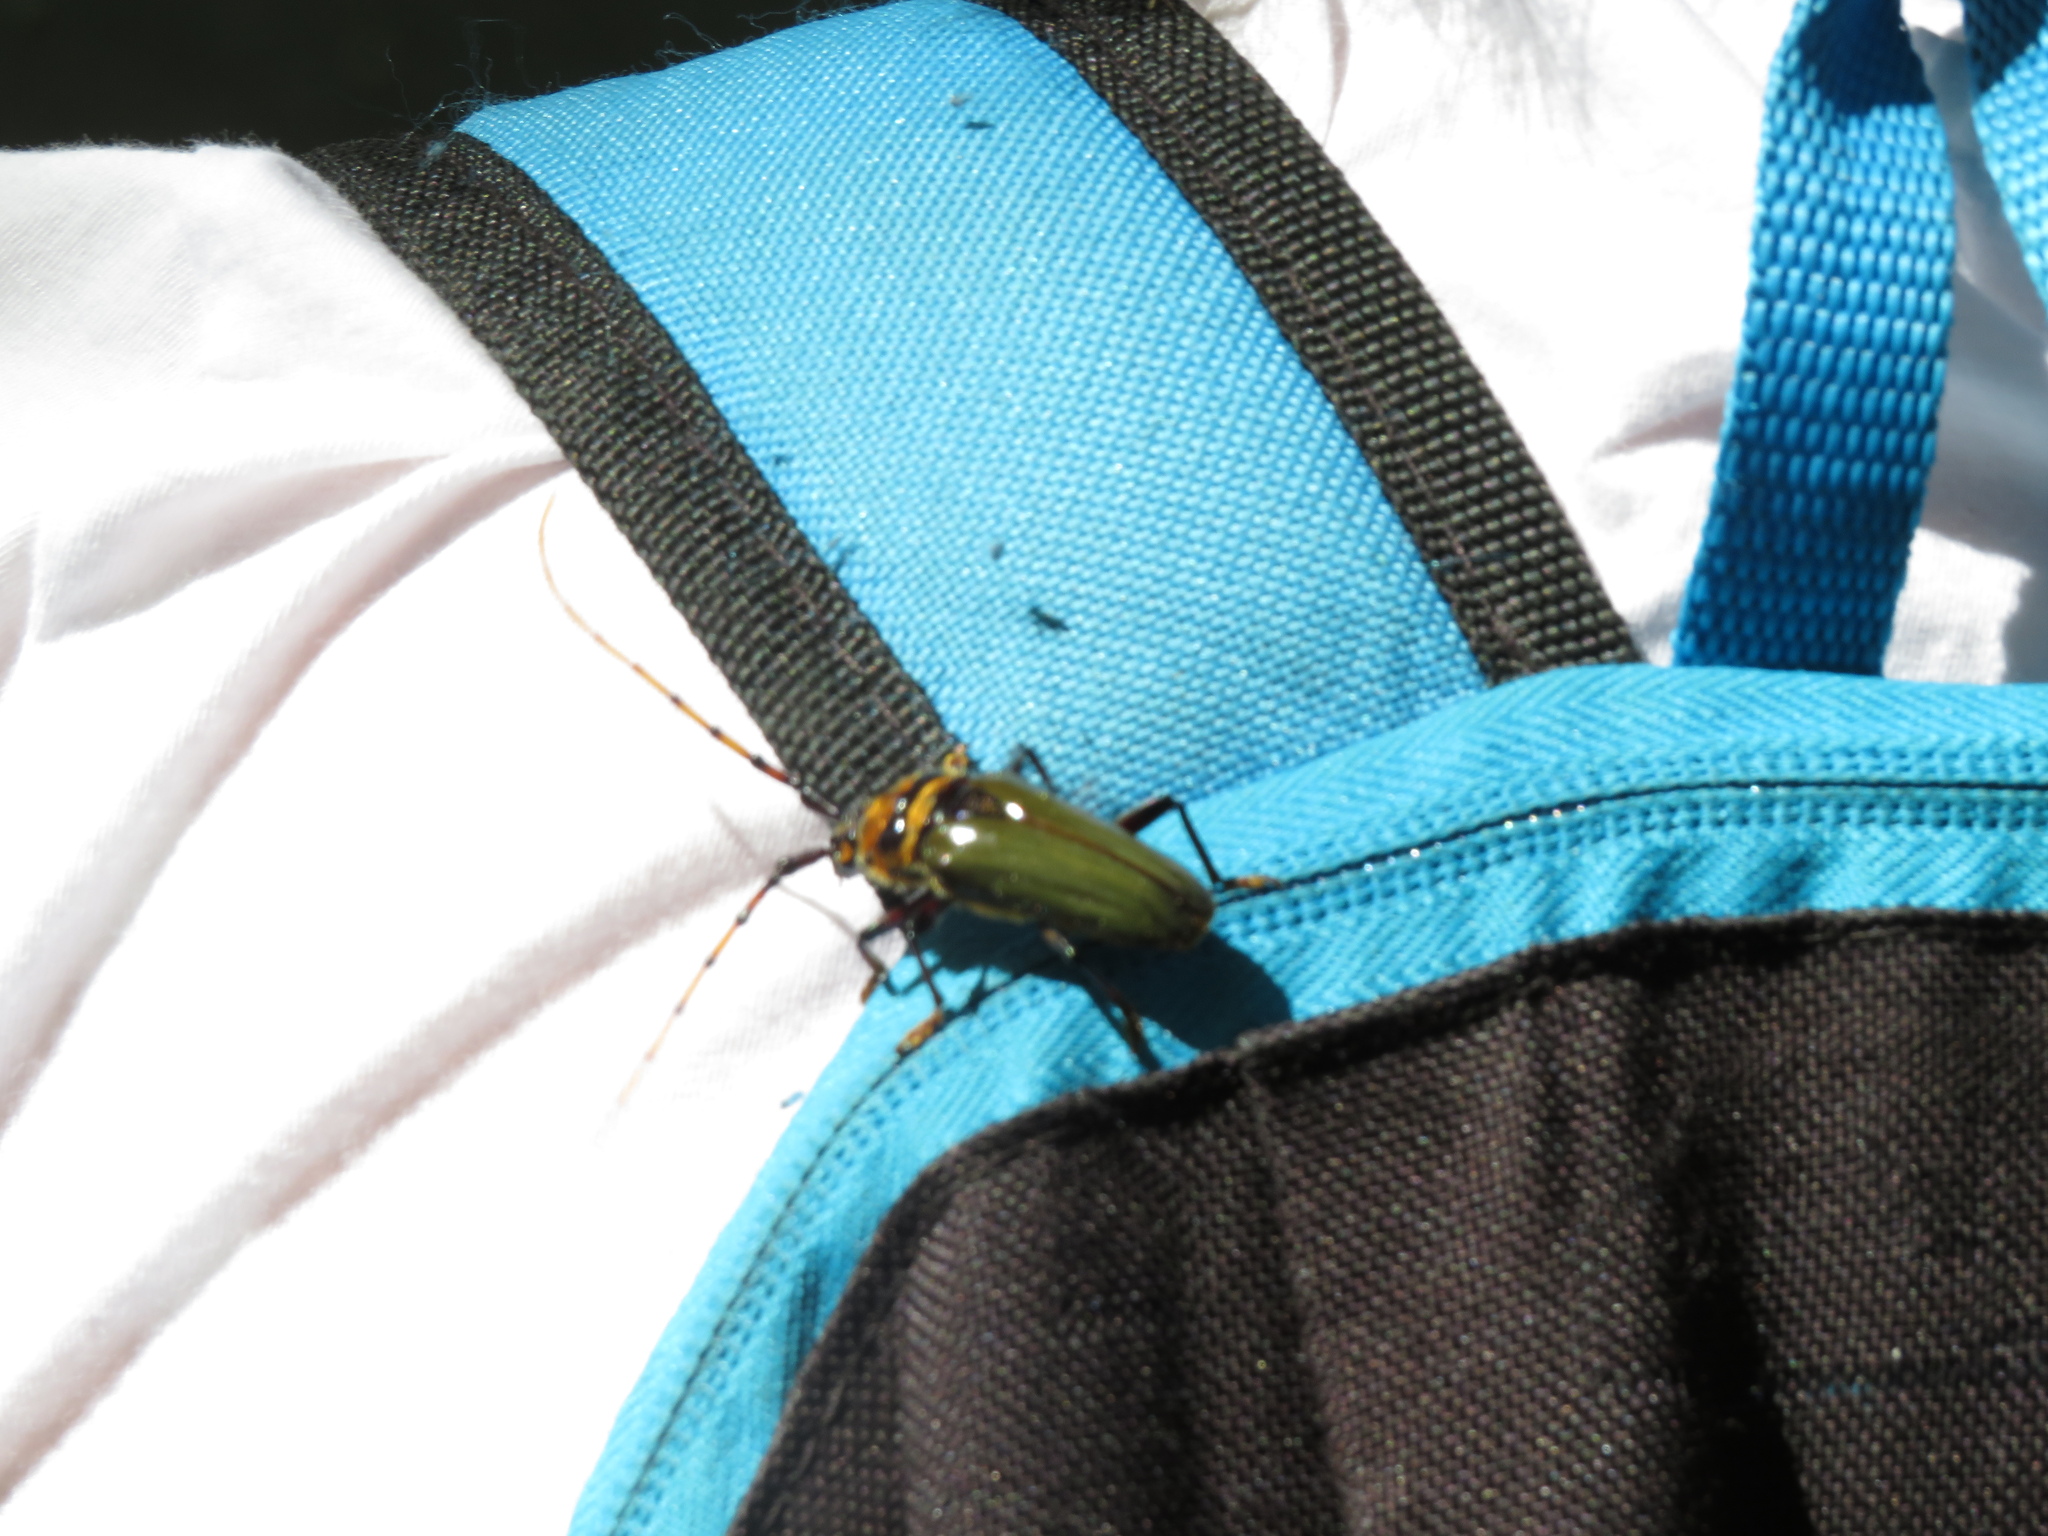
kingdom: Animalia
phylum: Arthropoda
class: Insecta
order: Coleoptera
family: Cerambycidae
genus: Retrachydes
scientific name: Retrachydes thoracicus
